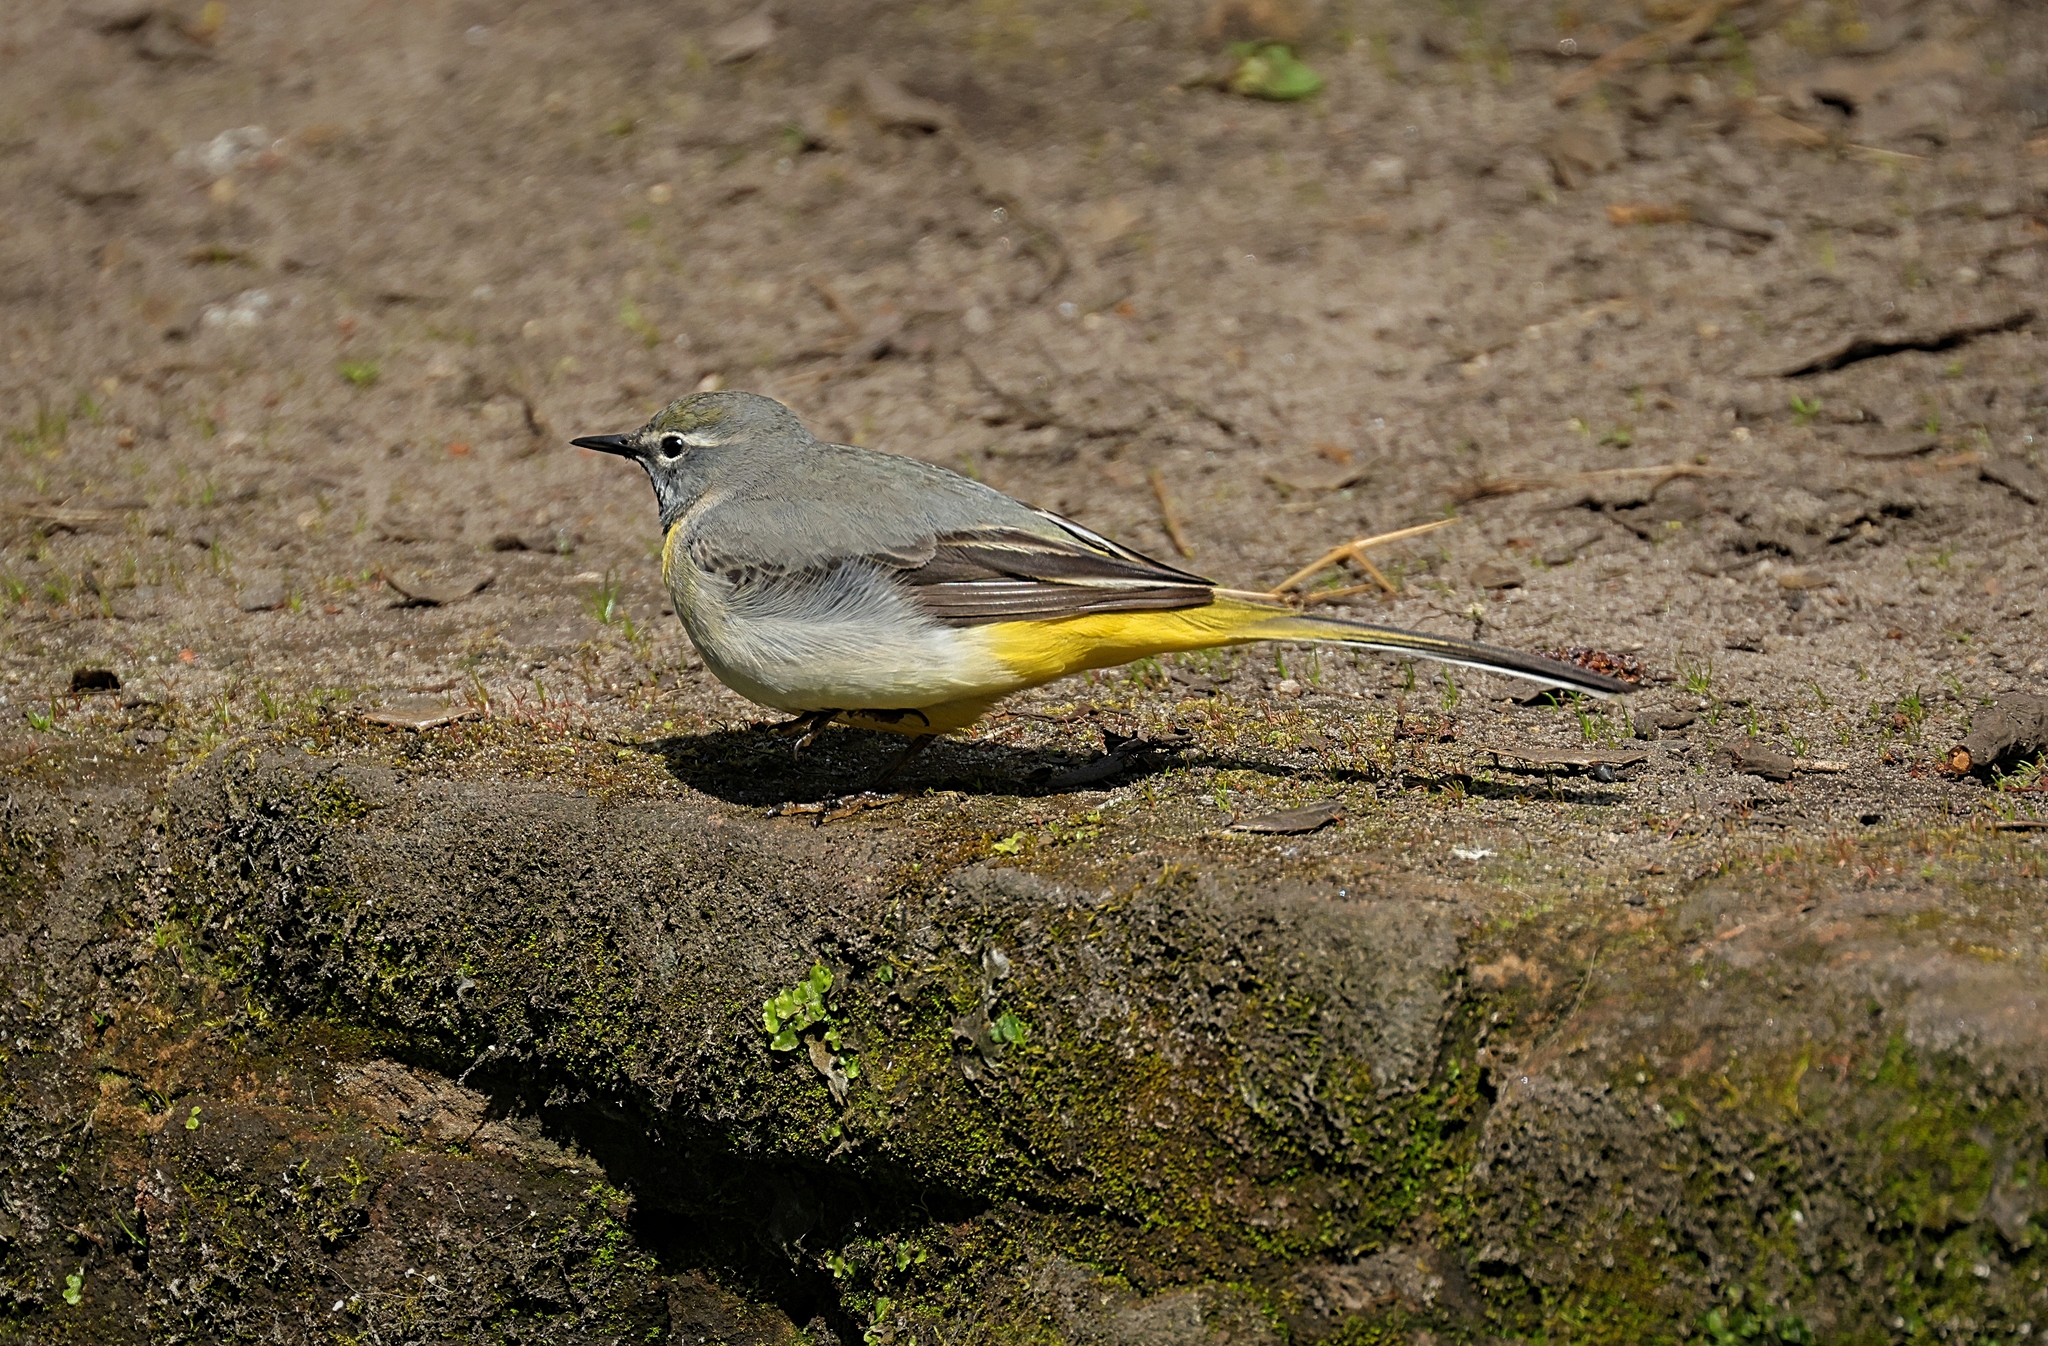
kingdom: Animalia
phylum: Chordata
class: Aves
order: Passeriformes
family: Motacillidae
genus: Motacilla
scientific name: Motacilla cinerea
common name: Grey wagtail
